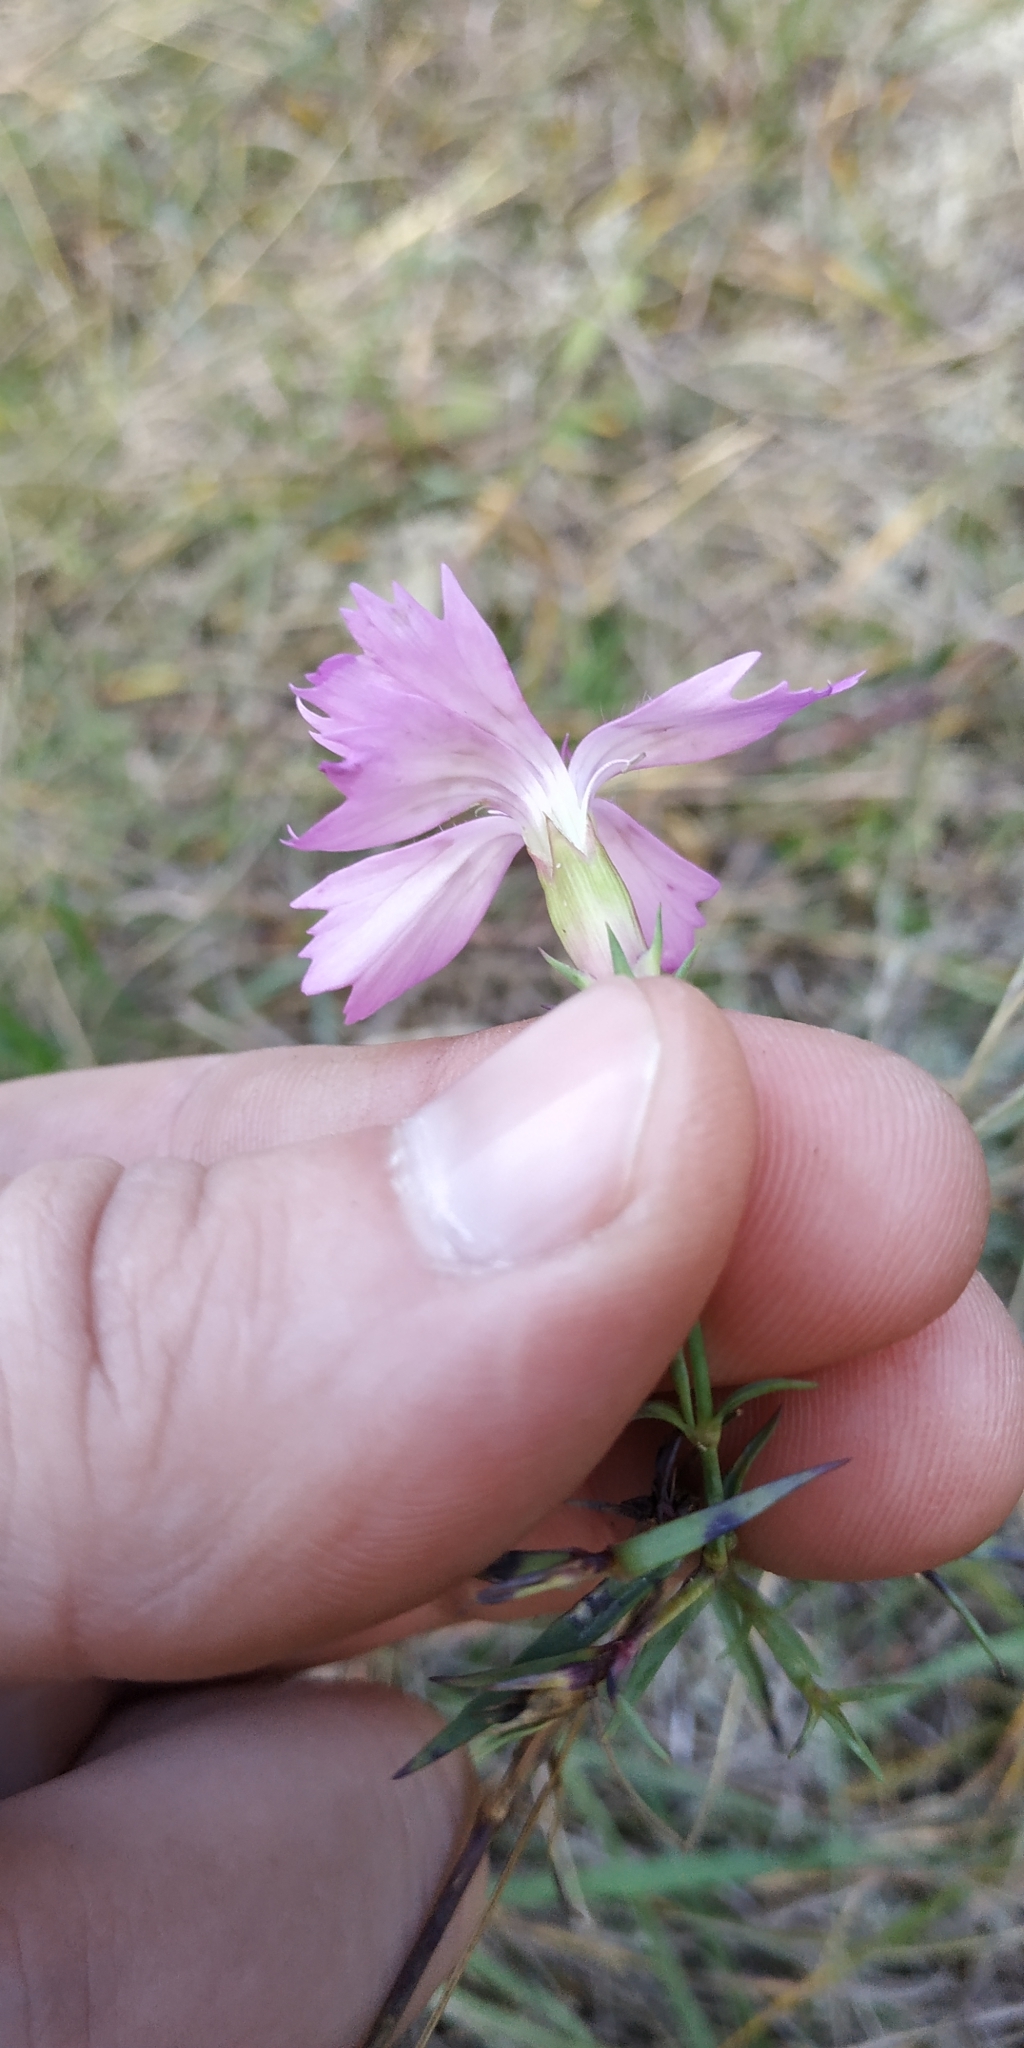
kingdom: Plantae
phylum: Tracheophyta
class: Magnoliopsida
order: Caryophyllales
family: Caryophyllaceae
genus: Dianthus
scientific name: Dianthus chinensis
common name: Rainbow pink
